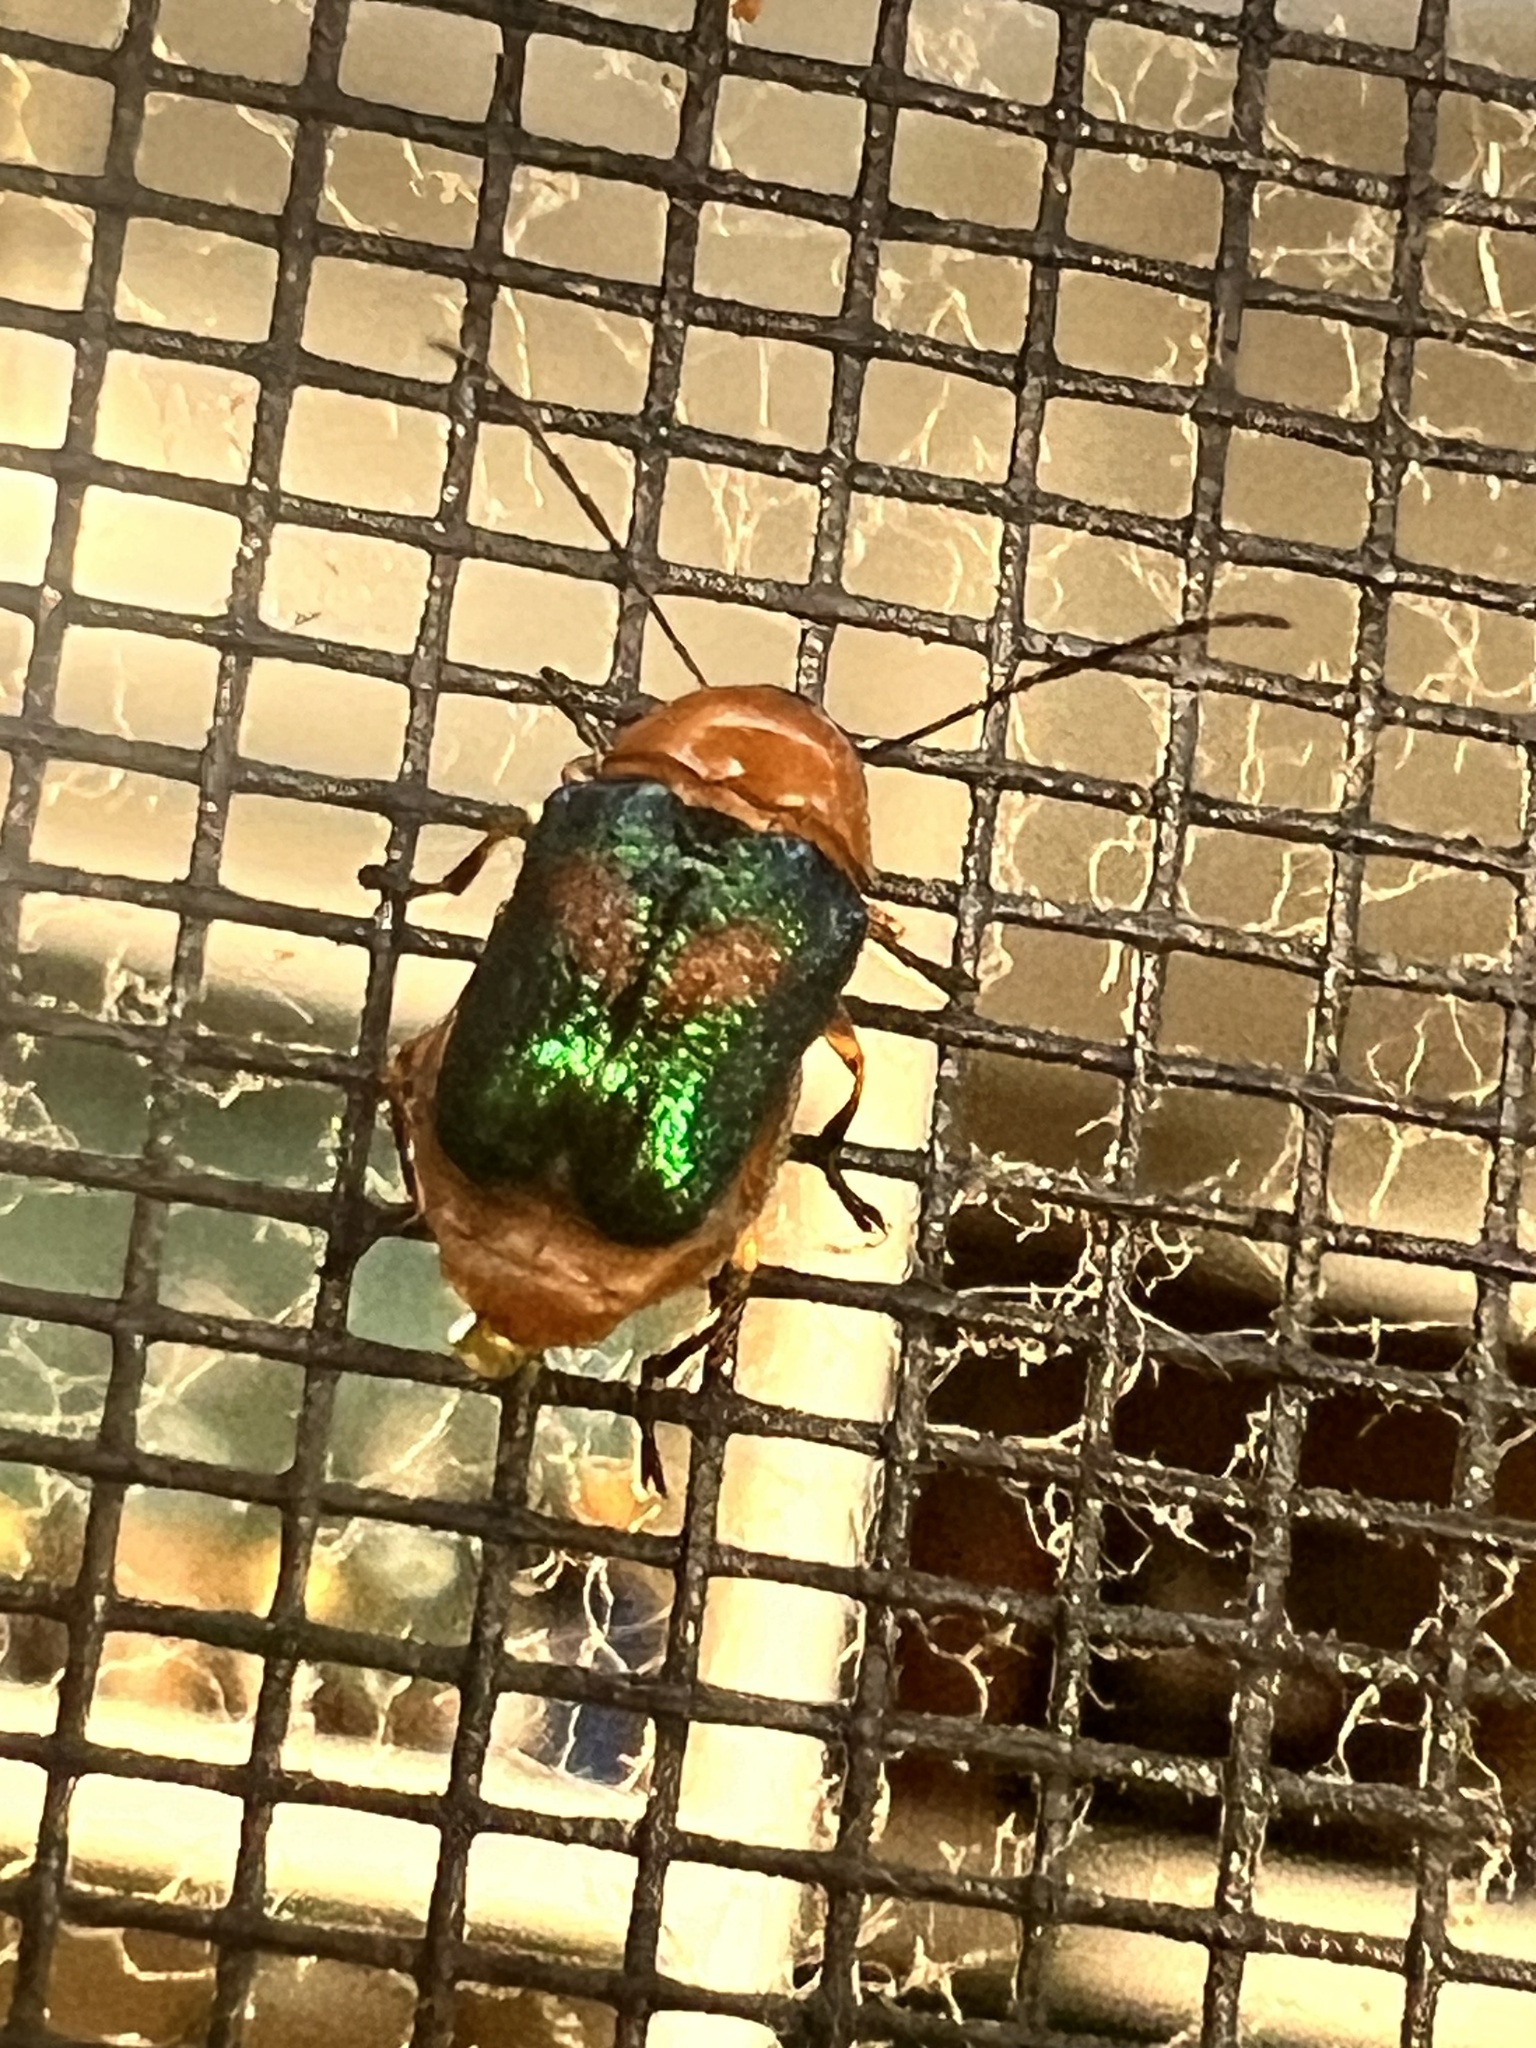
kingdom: Animalia
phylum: Arthropoda
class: Insecta
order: Coleoptera
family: Chrysomelidae
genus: Aporocera
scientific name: Aporocera iridipennis
